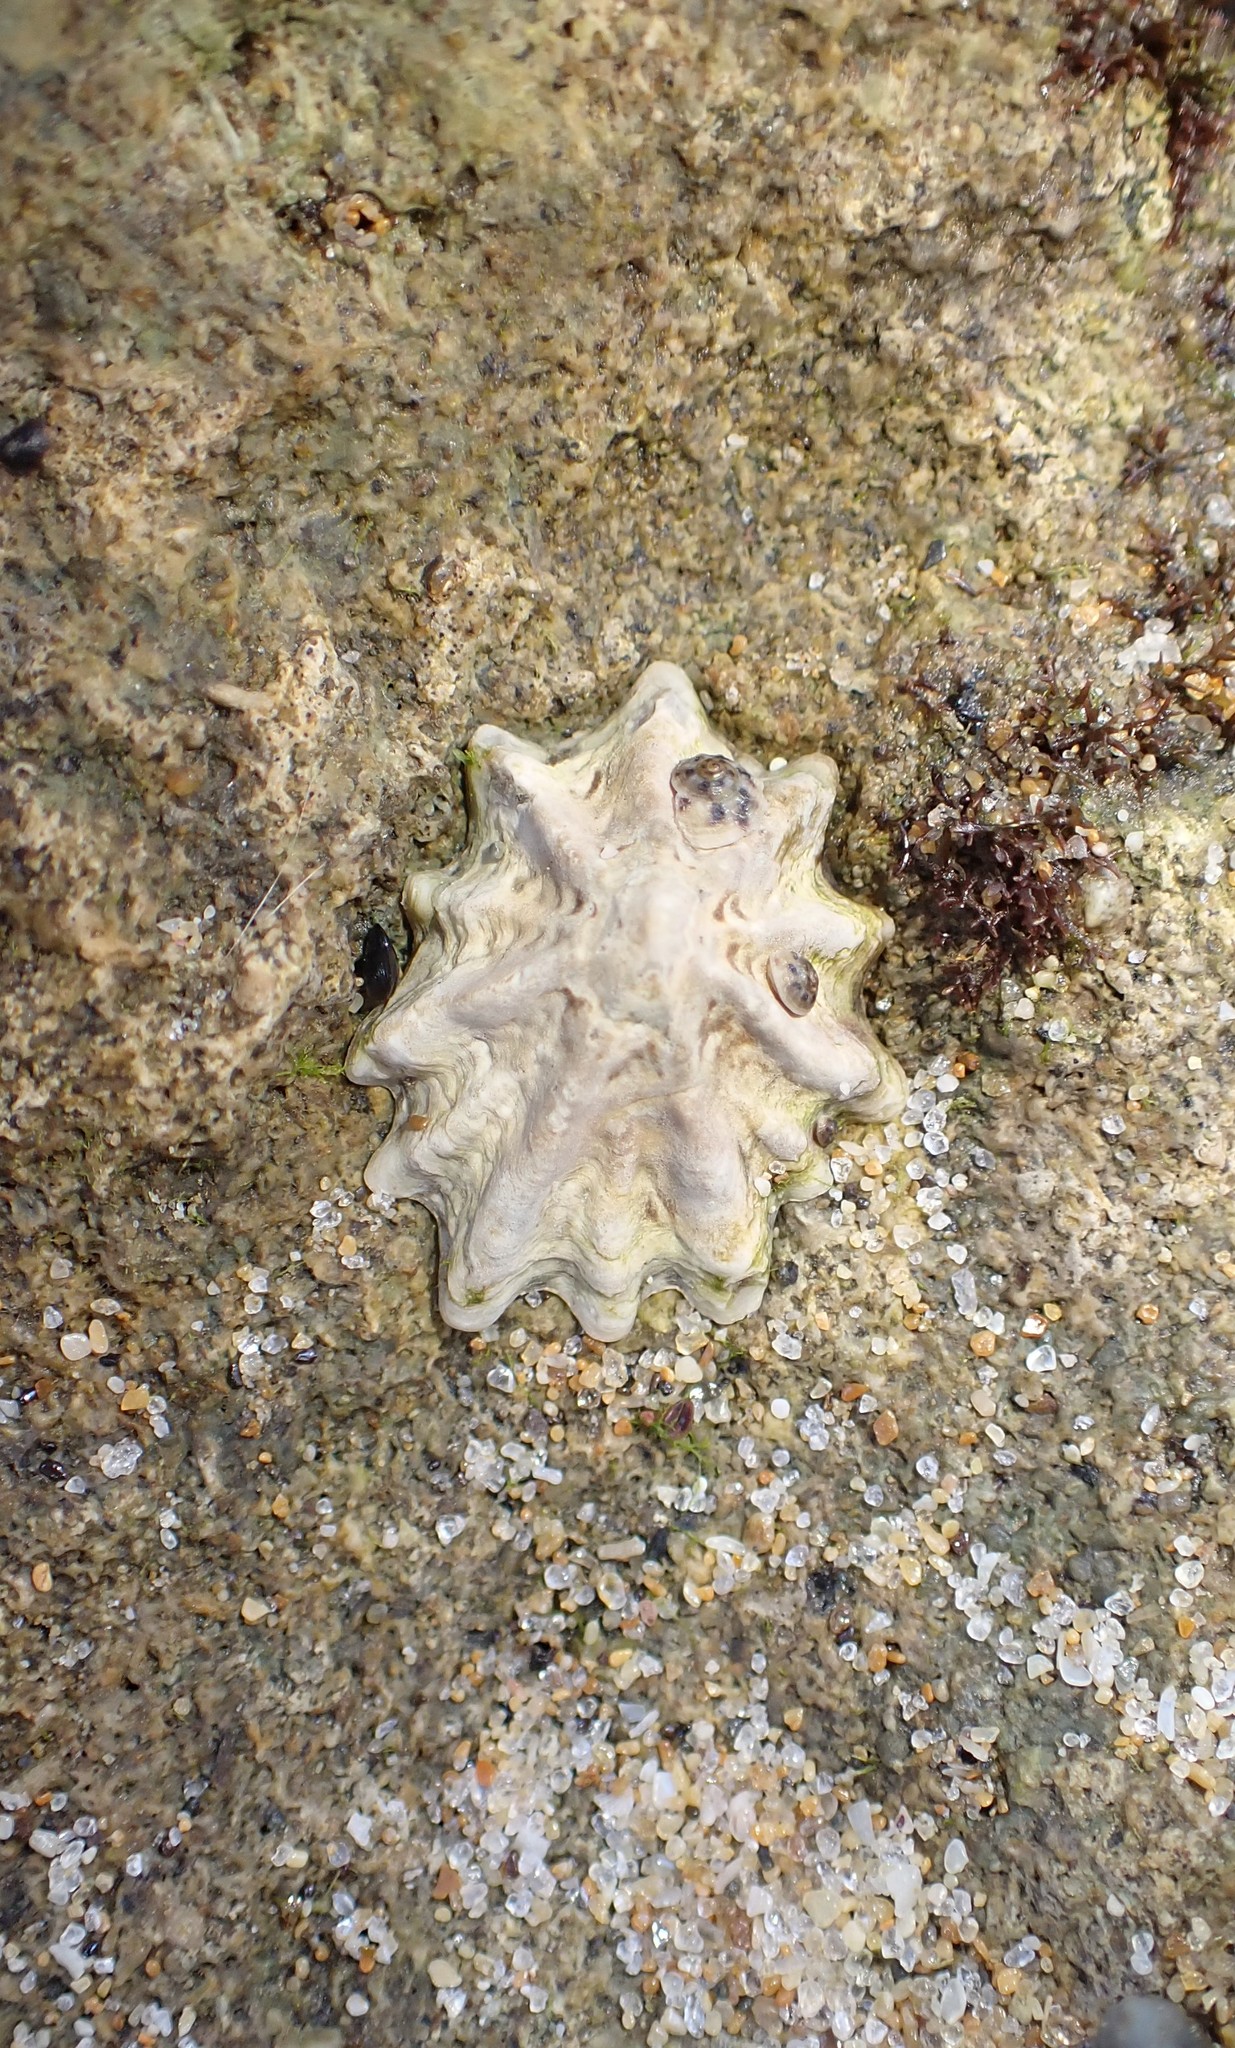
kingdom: Animalia
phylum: Mollusca
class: Gastropoda
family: Lottiidae
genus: Patelloida
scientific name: Patelloida alticostata
